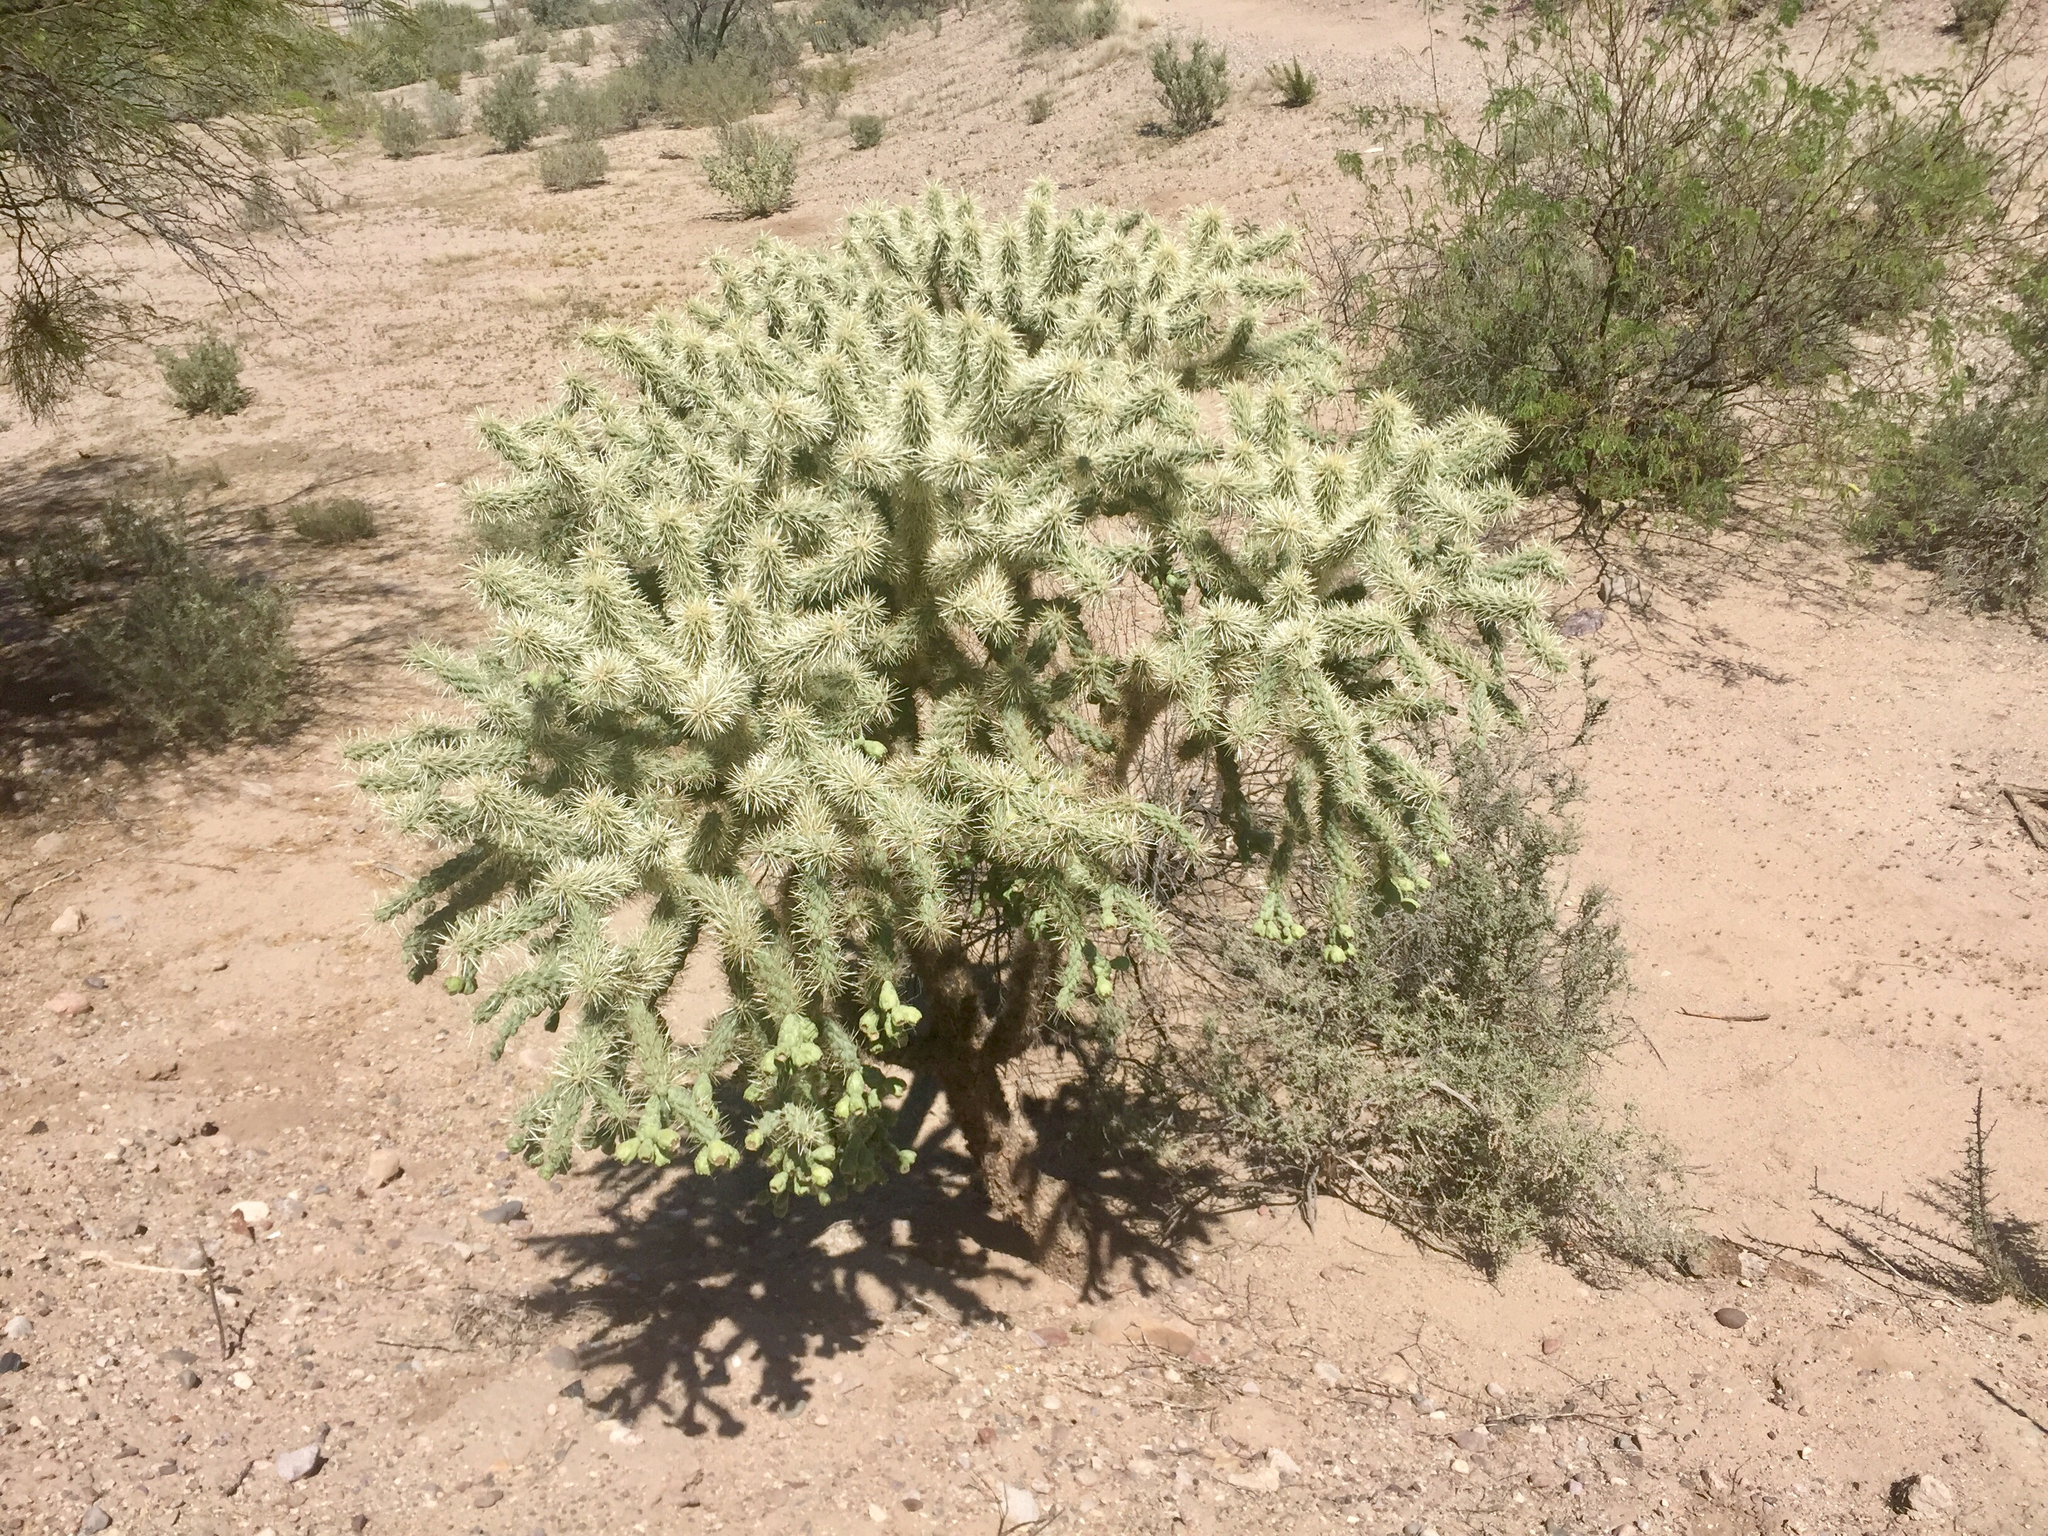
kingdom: Plantae
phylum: Tracheophyta
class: Magnoliopsida
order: Caryophyllales
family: Cactaceae
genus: Cylindropuntia
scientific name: Cylindropuntia fulgida
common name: Jumping cholla
